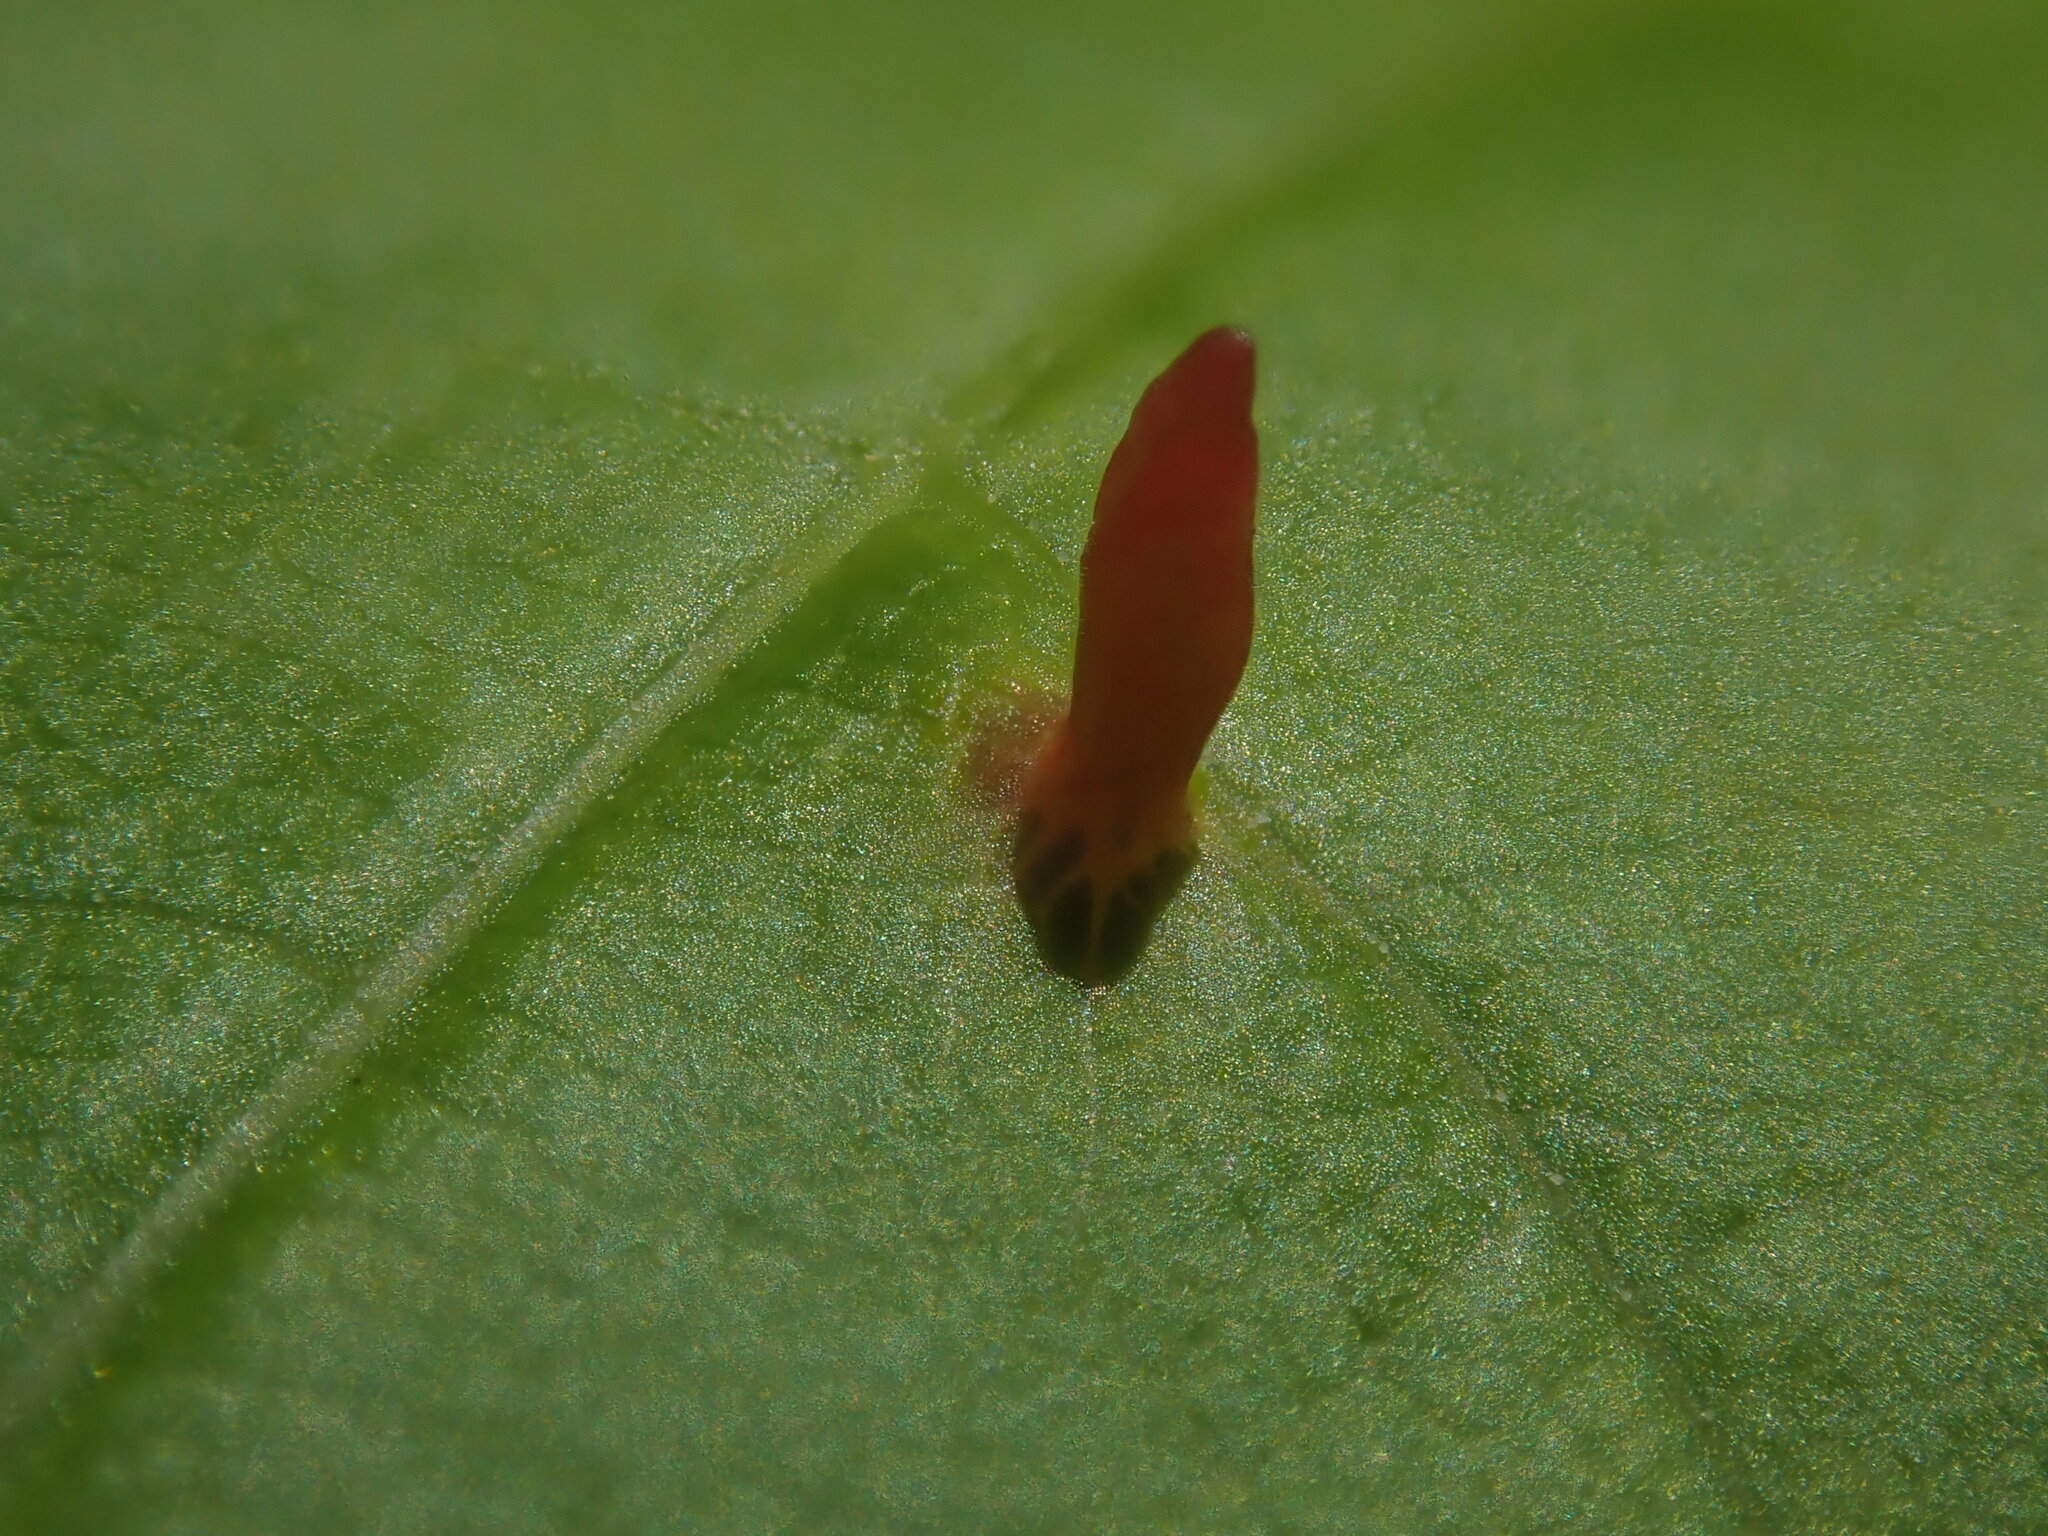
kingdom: Animalia
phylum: Arthropoda
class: Arachnida
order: Trombidiformes
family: Eriophyidae
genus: Vasates
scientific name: Vasates aceriscrumena
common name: Maple spindle gall mite
